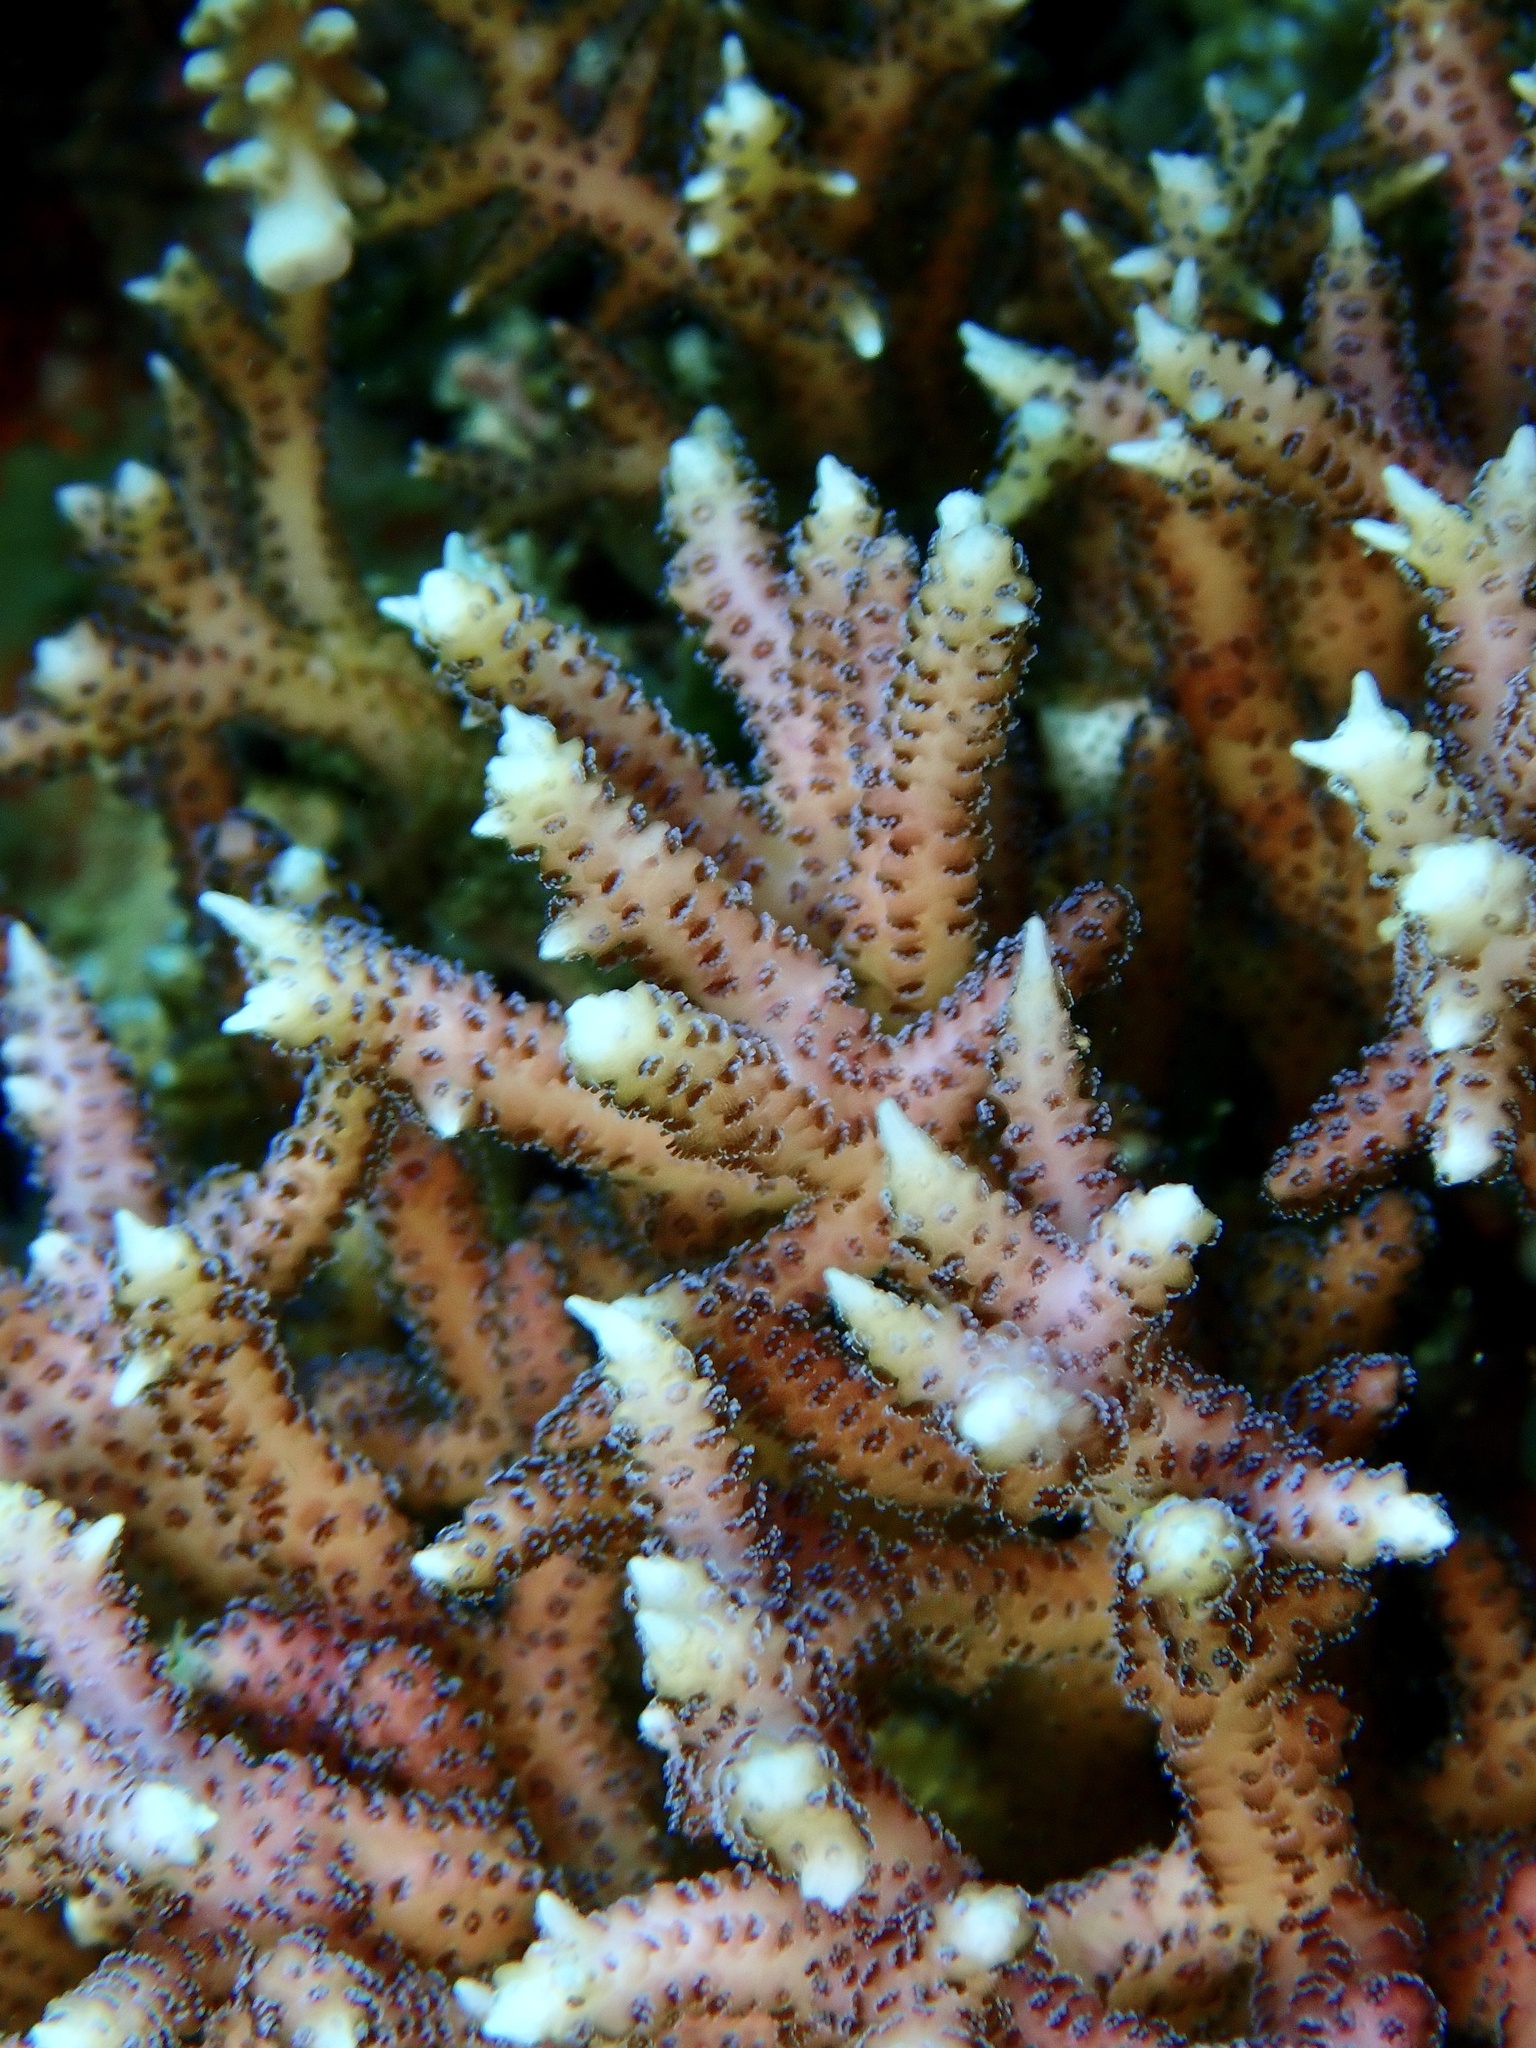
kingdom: Animalia
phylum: Cnidaria
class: Anthozoa
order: Scleractinia
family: Pocilloporidae
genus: Seriatopora
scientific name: Seriatopora hystrix
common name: Bush coral
